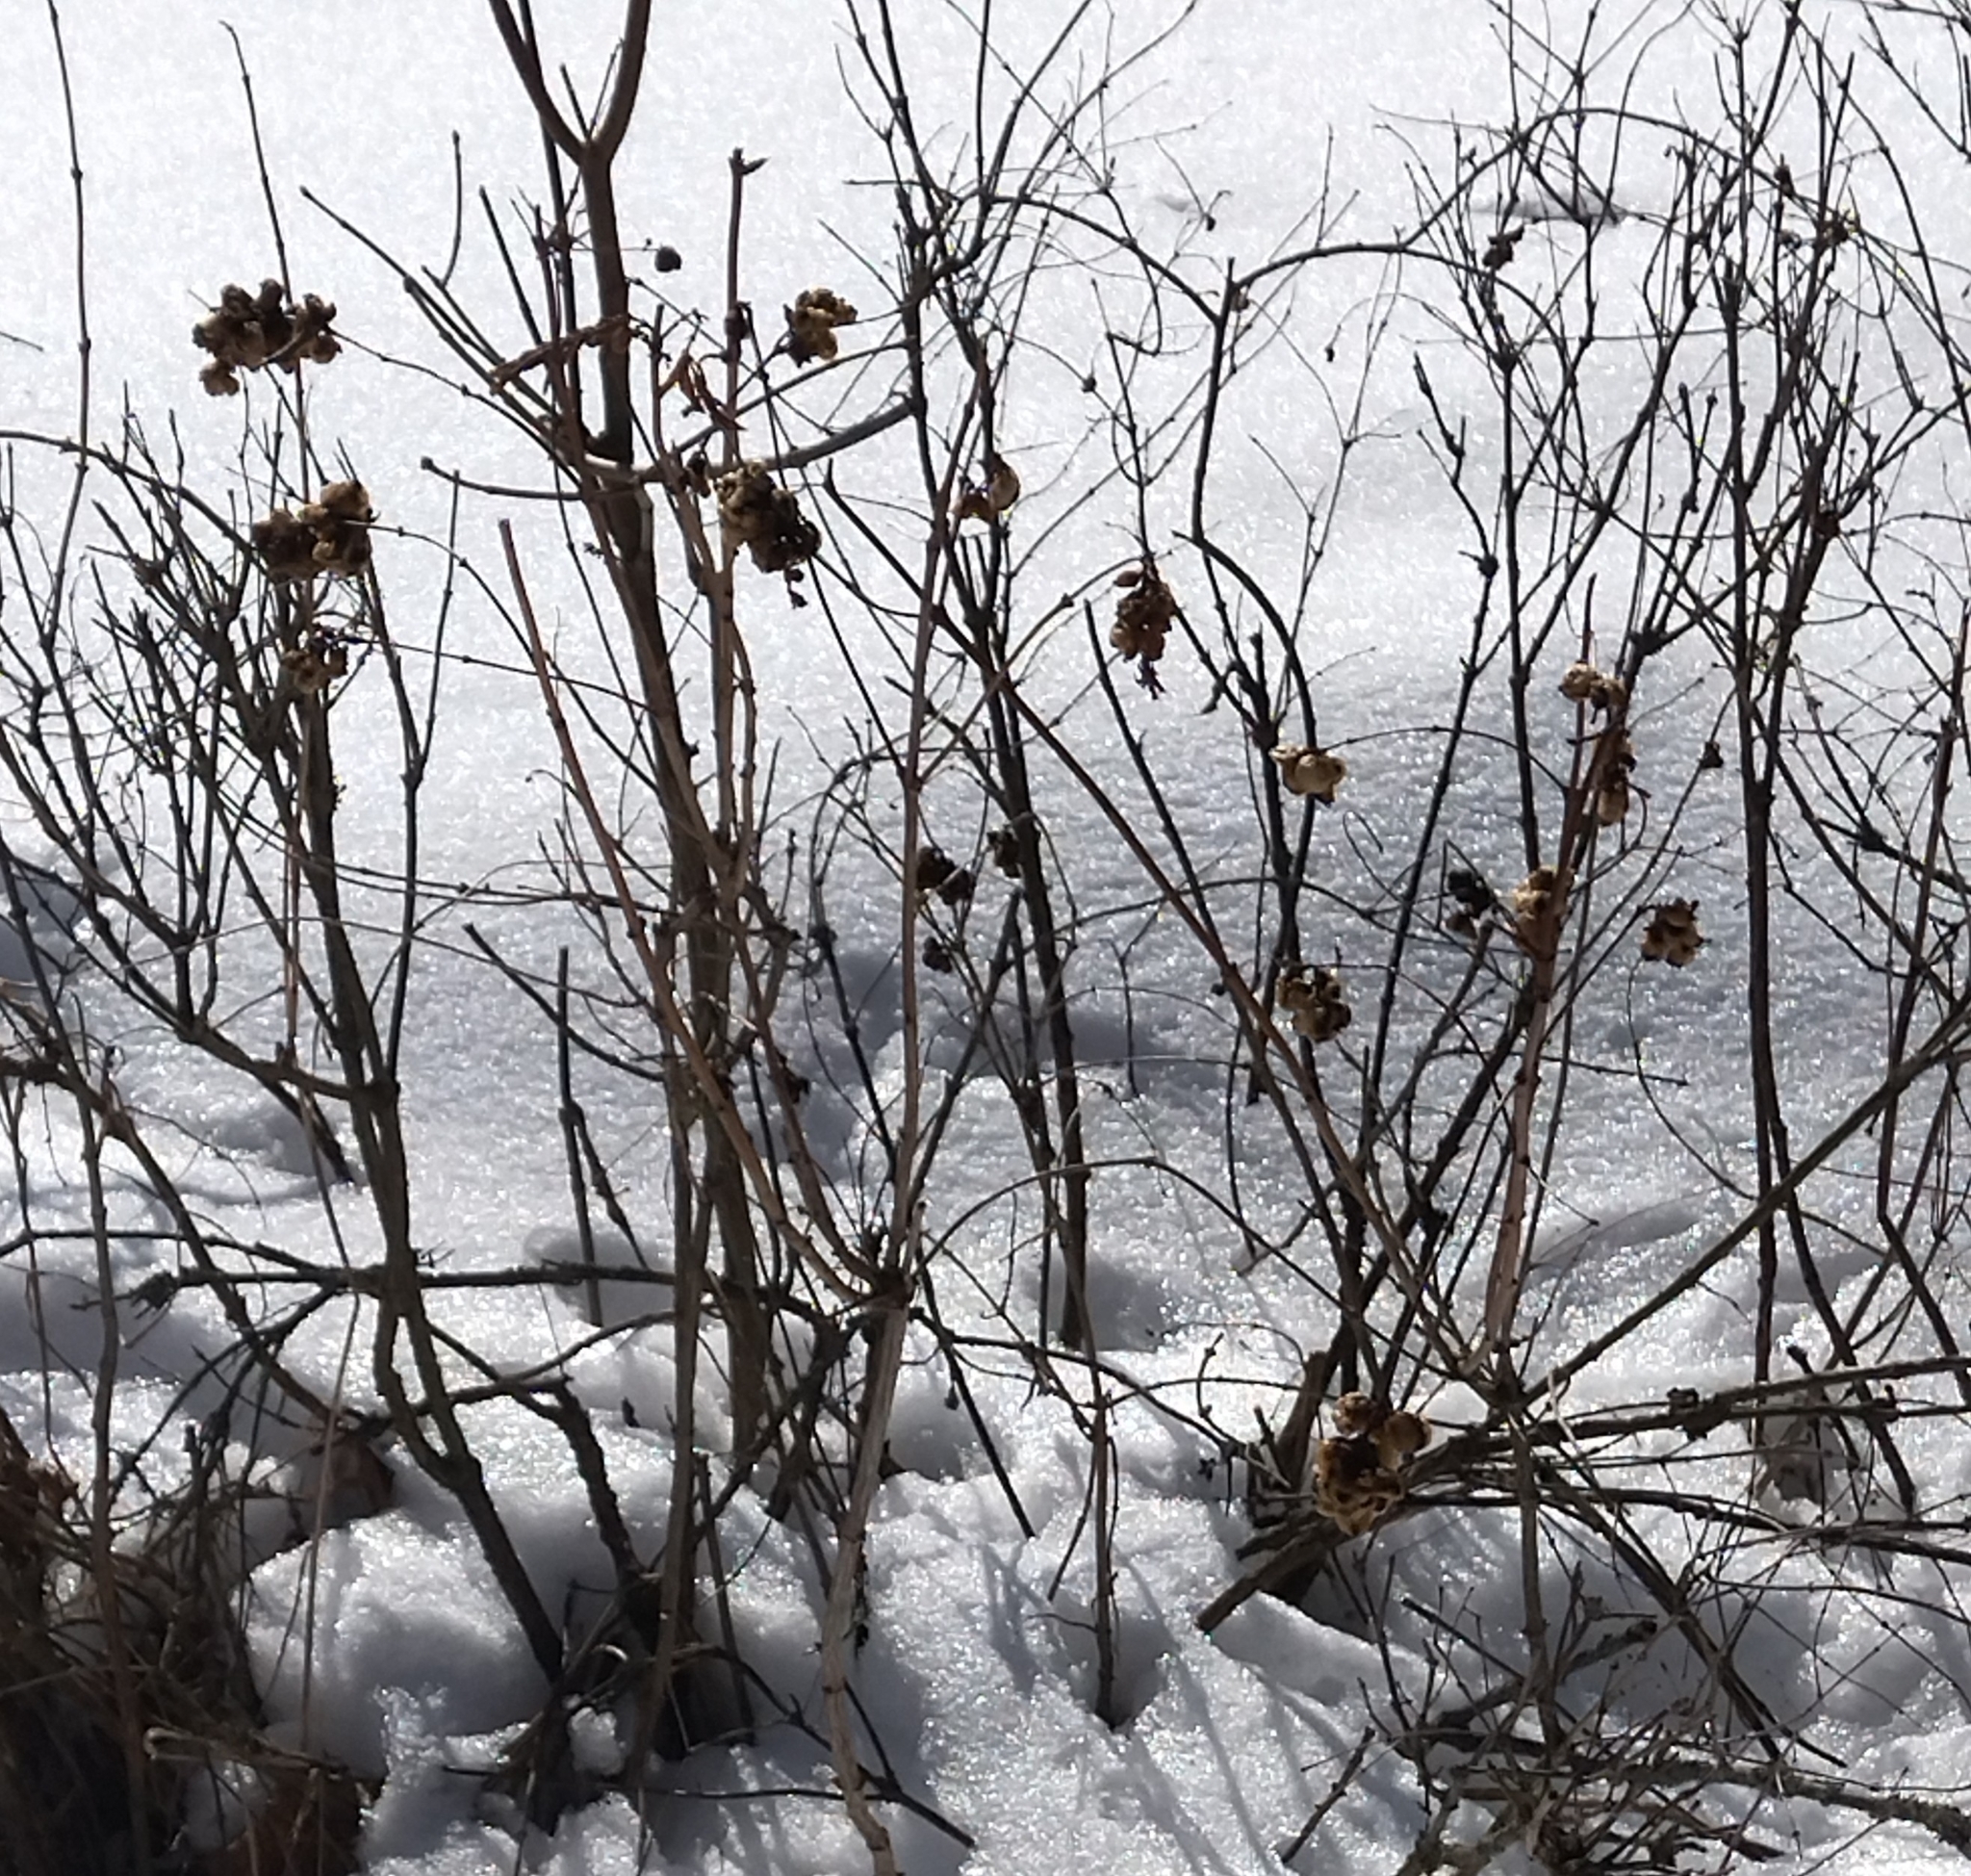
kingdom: Plantae
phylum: Tracheophyta
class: Magnoliopsida
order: Dipsacales
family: Caprifoliaceae
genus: Symphoricarpos
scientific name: Symphoricarpos albus
